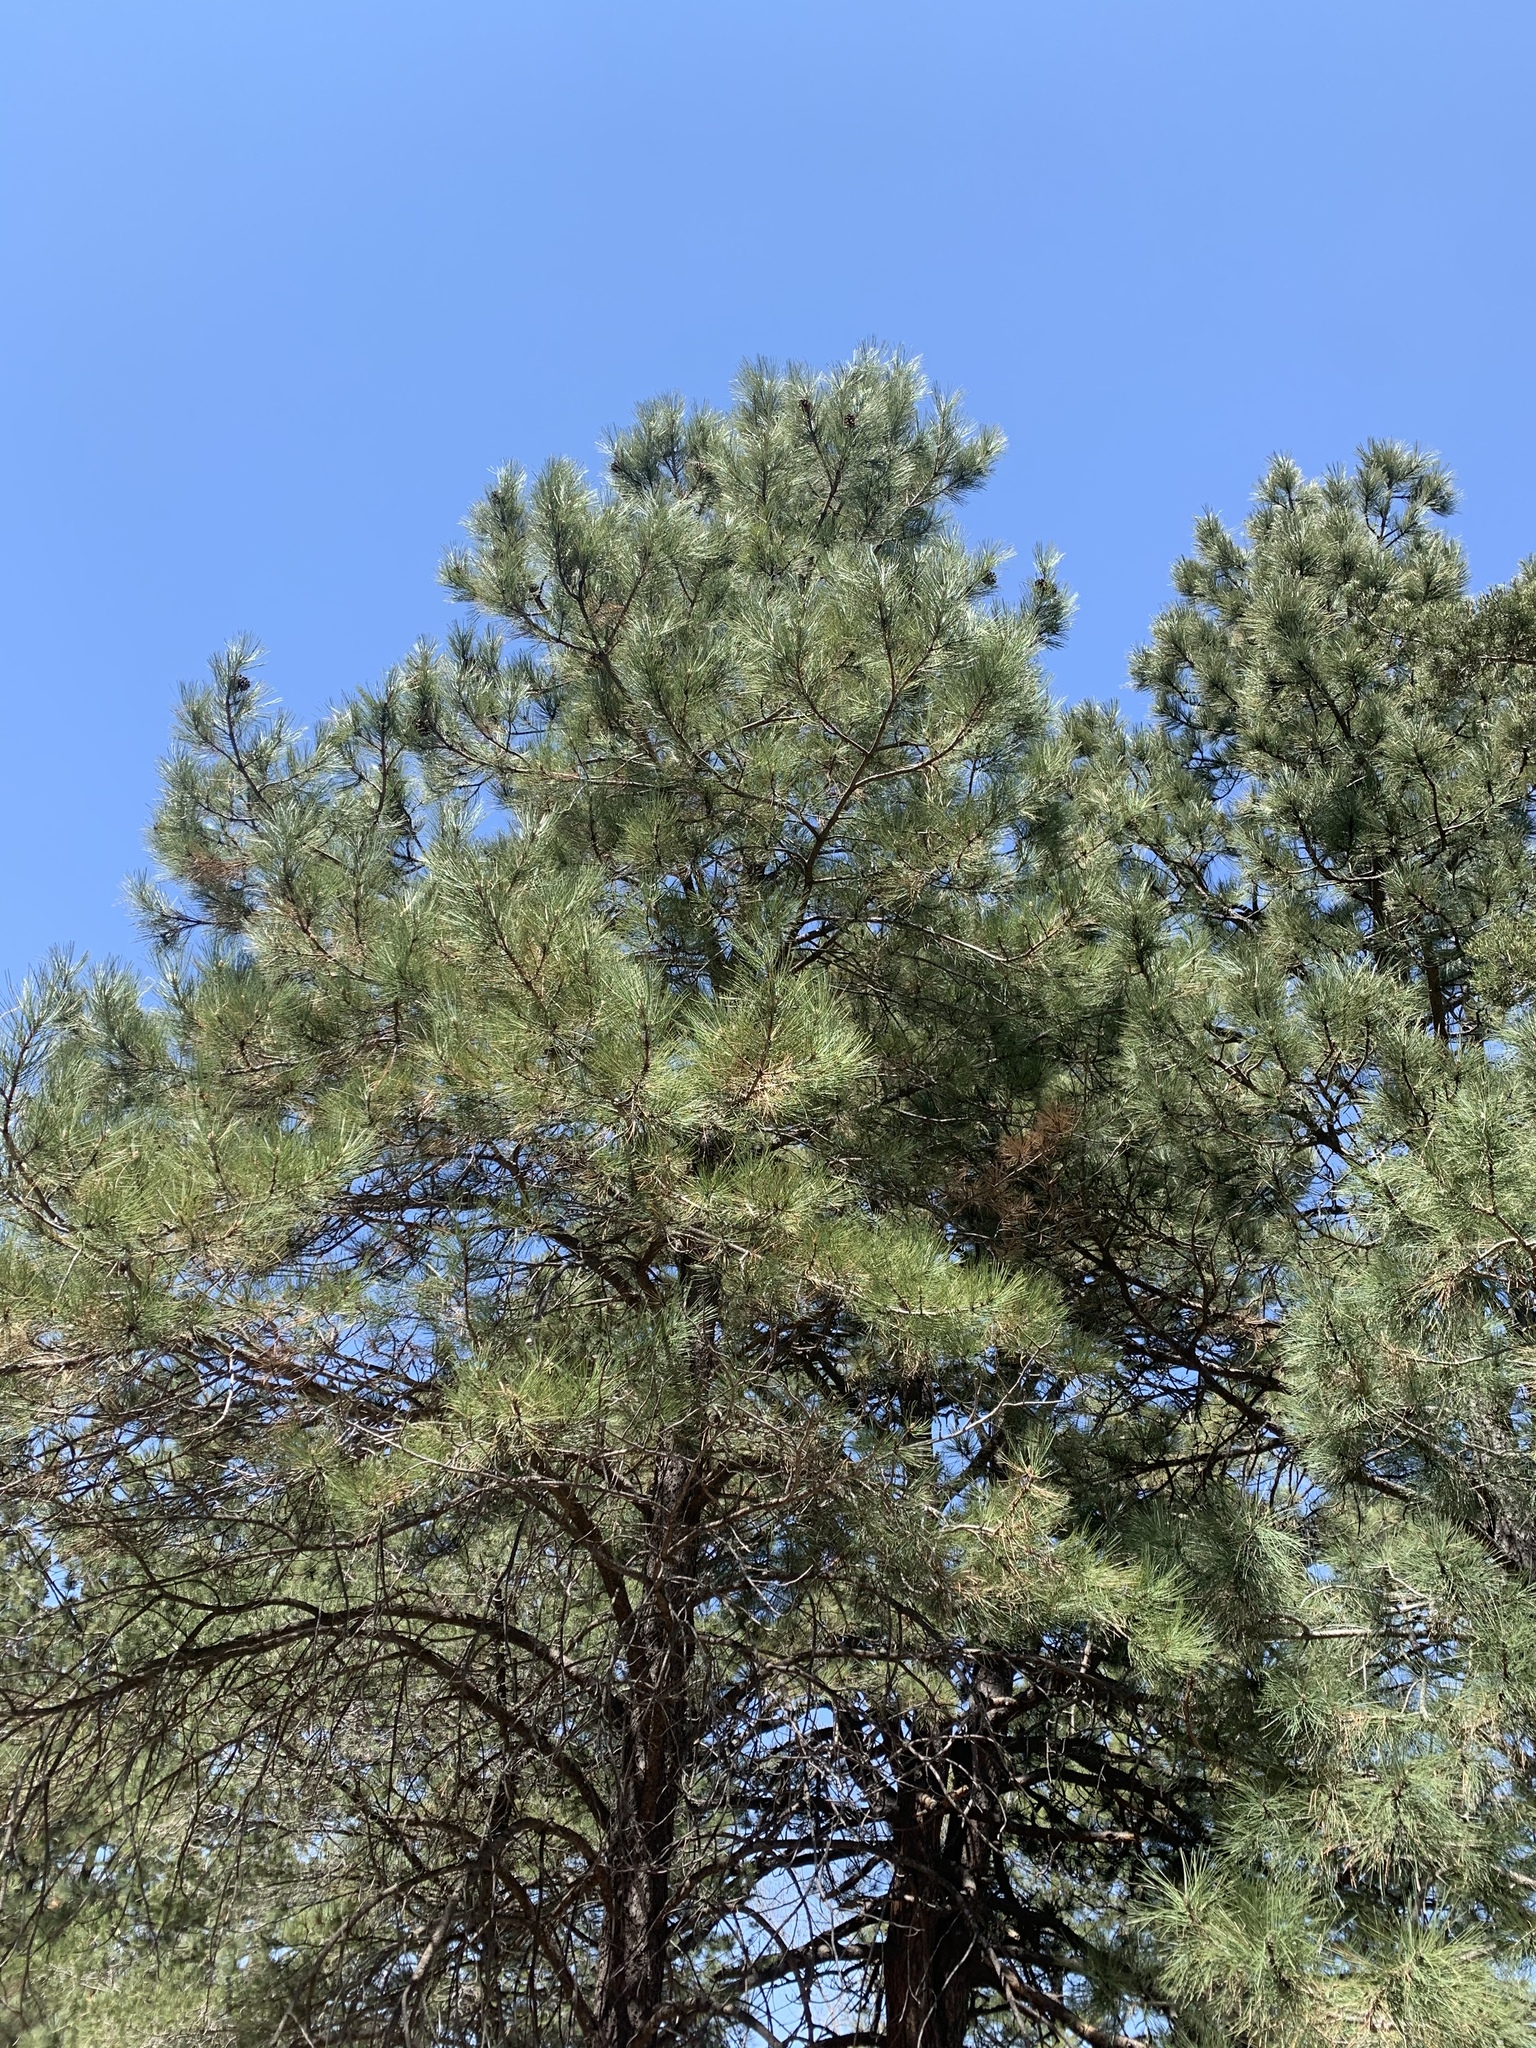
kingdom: Plantae
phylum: Tracheophyta
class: Pinopsida
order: Pinales
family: Pinaceae
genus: Pinus
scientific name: Pinus ponderosa
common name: Western yellow-pine
